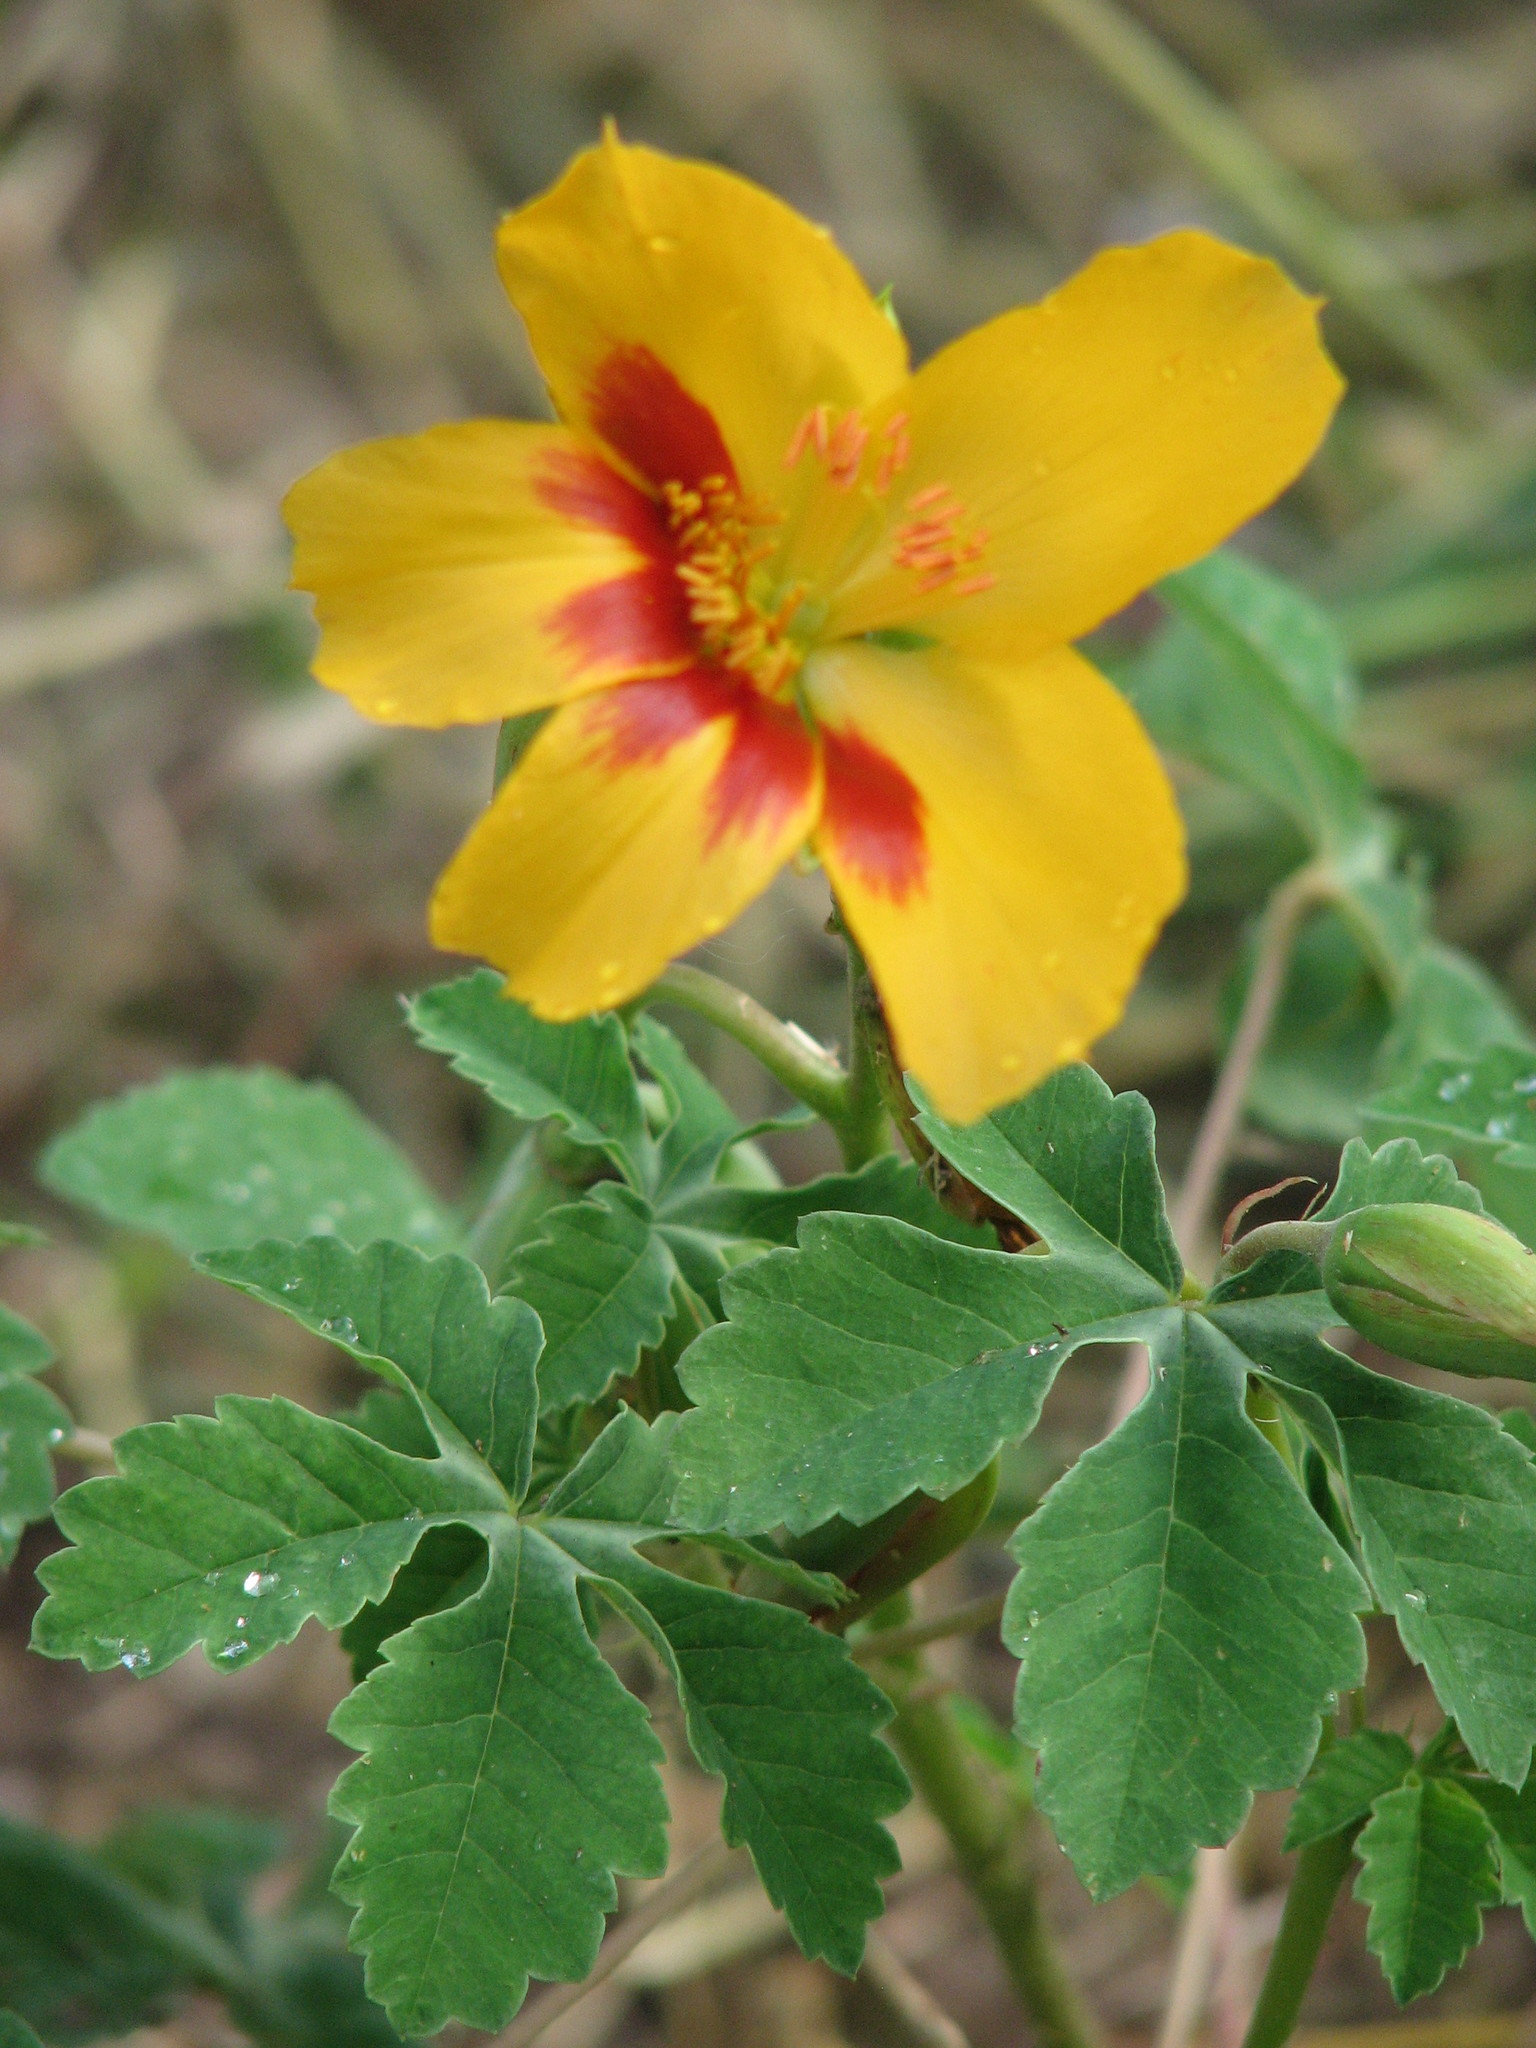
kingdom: Plantae
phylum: Tracheophyta
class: Magnoliopsida
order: Malvales
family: Cochlospermaceae
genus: Cochlospermum
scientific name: Cochlospermum wrightii
